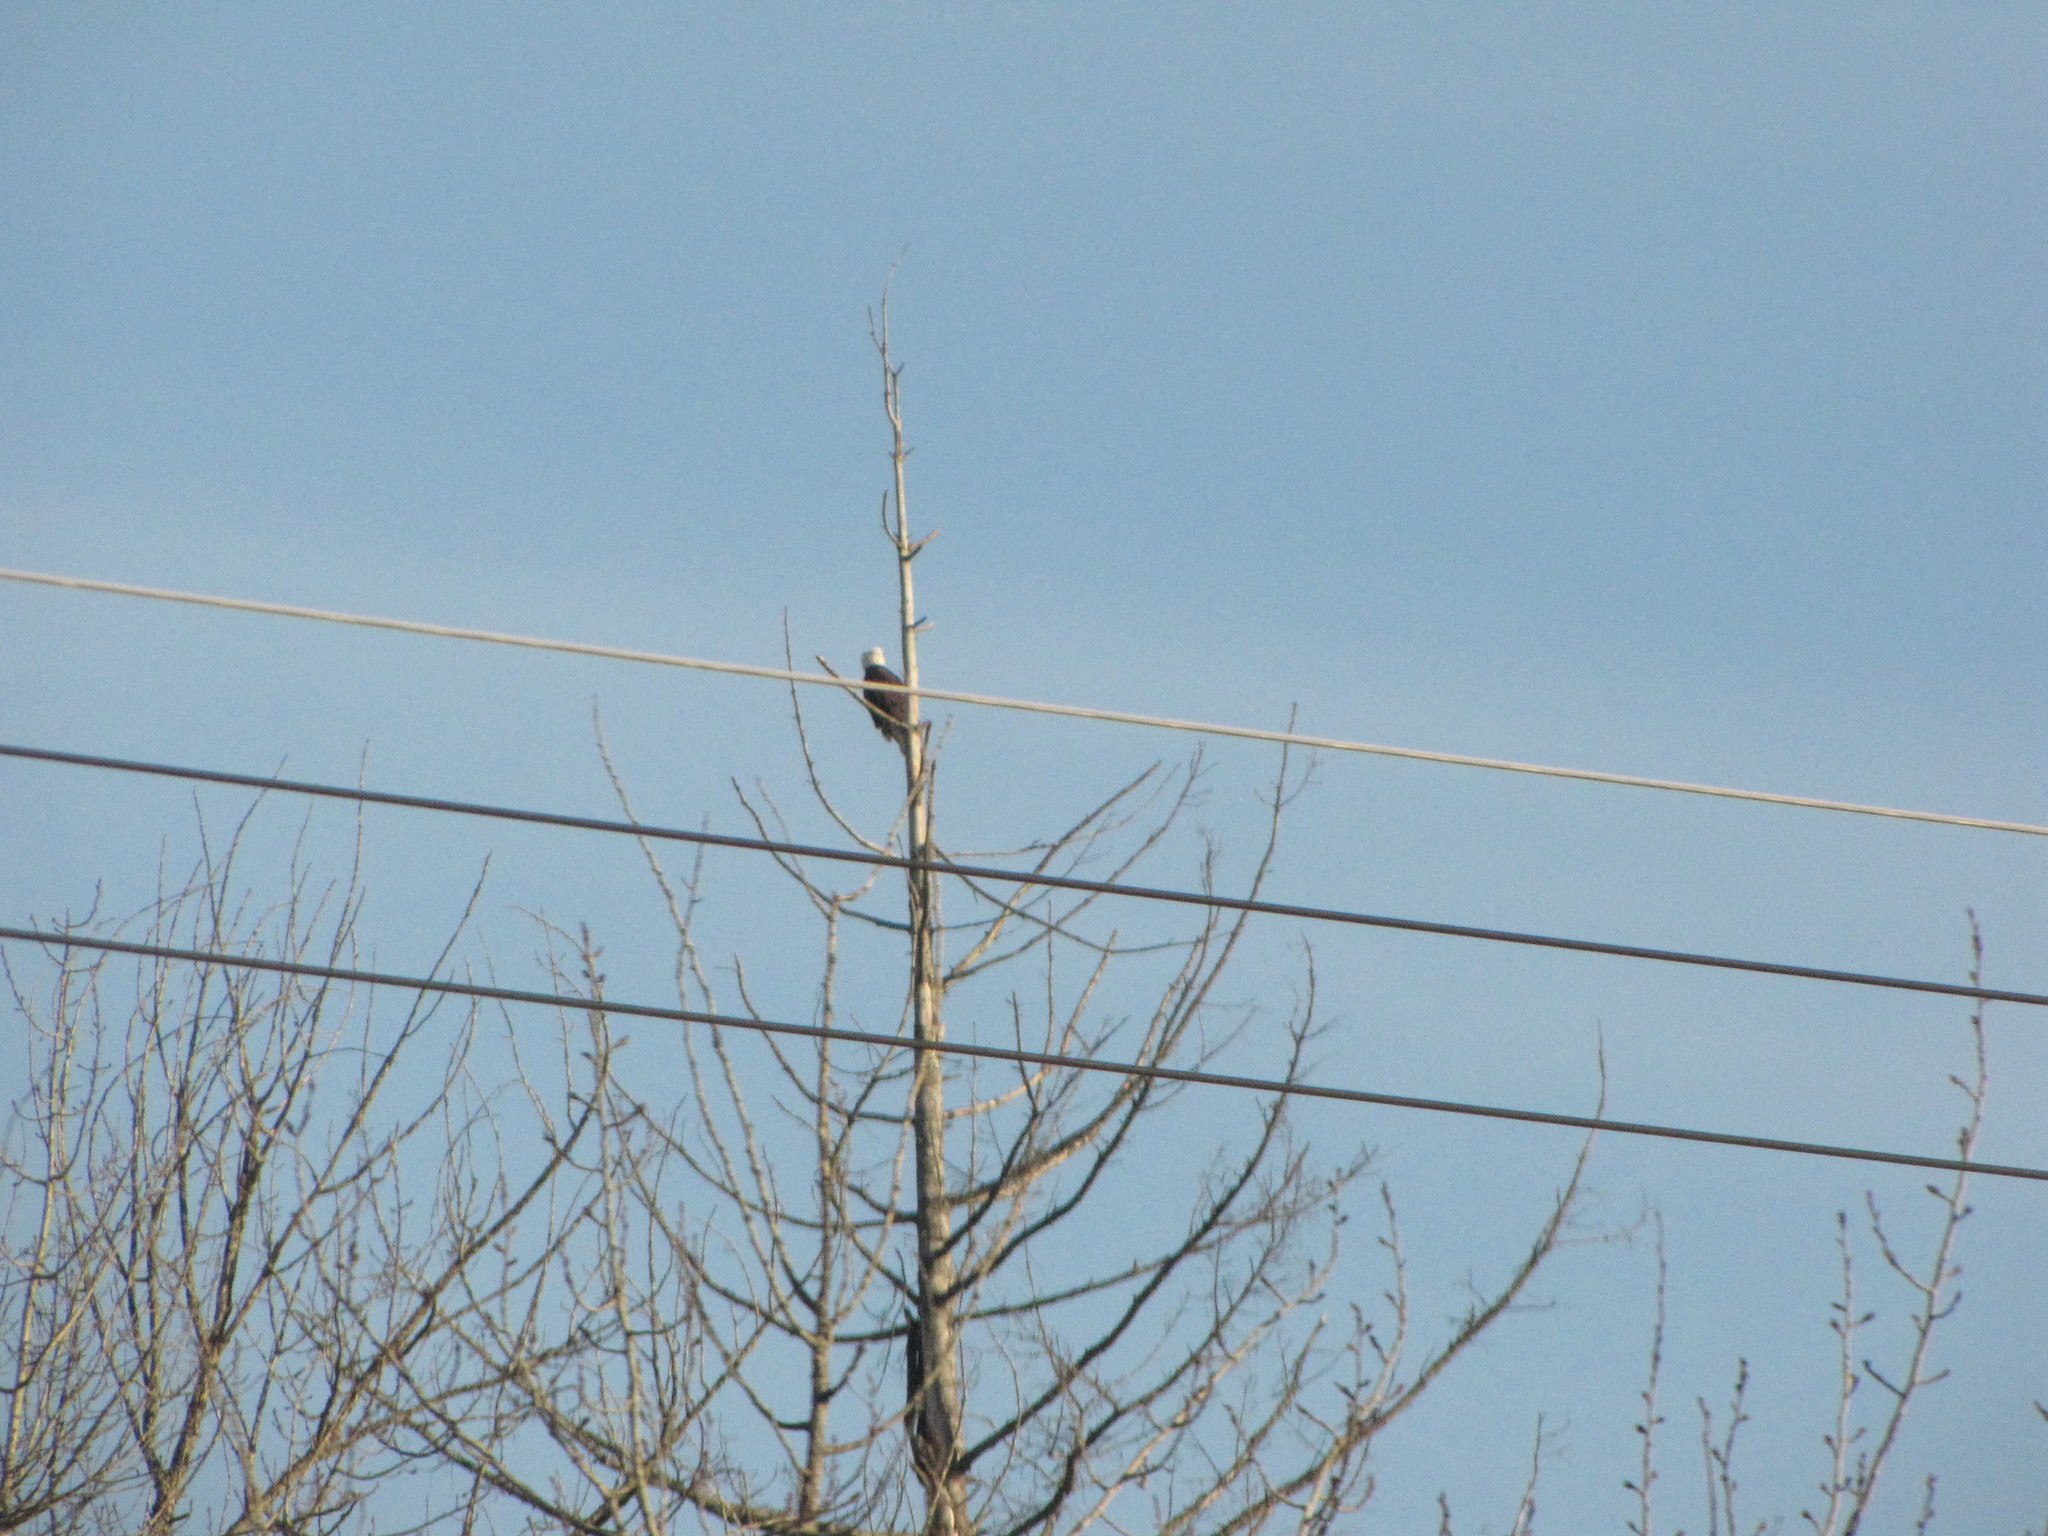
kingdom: Animalia
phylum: Chordata
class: Aves
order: Accipitriformes
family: Accipitridae
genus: Haliaeetus
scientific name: Haliaeetus leucocephalus
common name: Bald eagle
